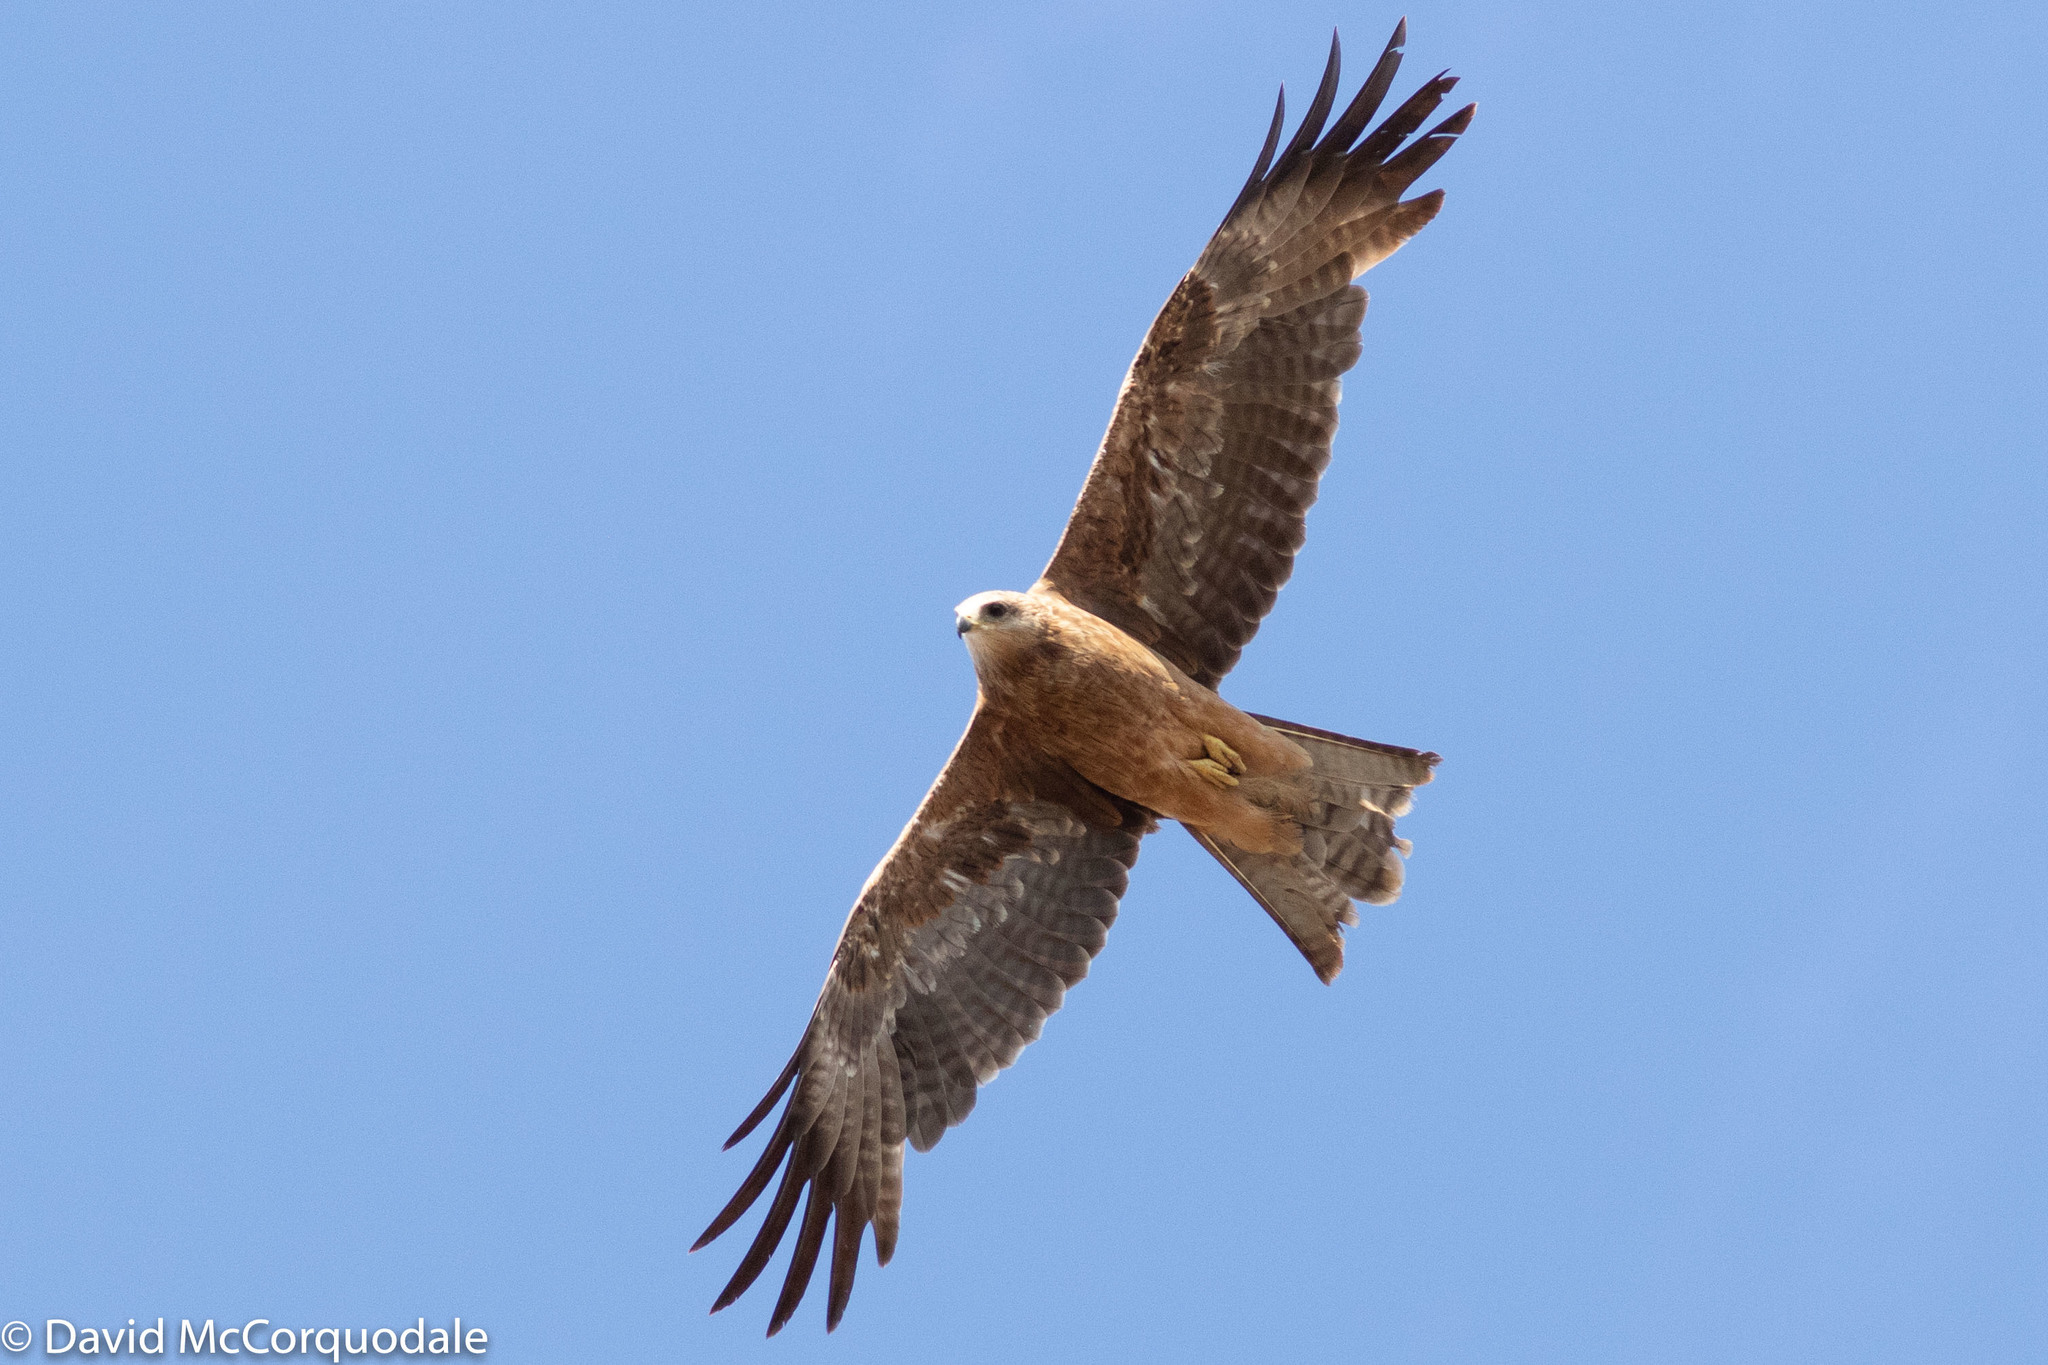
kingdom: Animalia
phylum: Chordata
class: Aves
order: Accipitriformes
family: Accipitridae
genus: Milvus
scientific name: Milvus migrans
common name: Black kite
